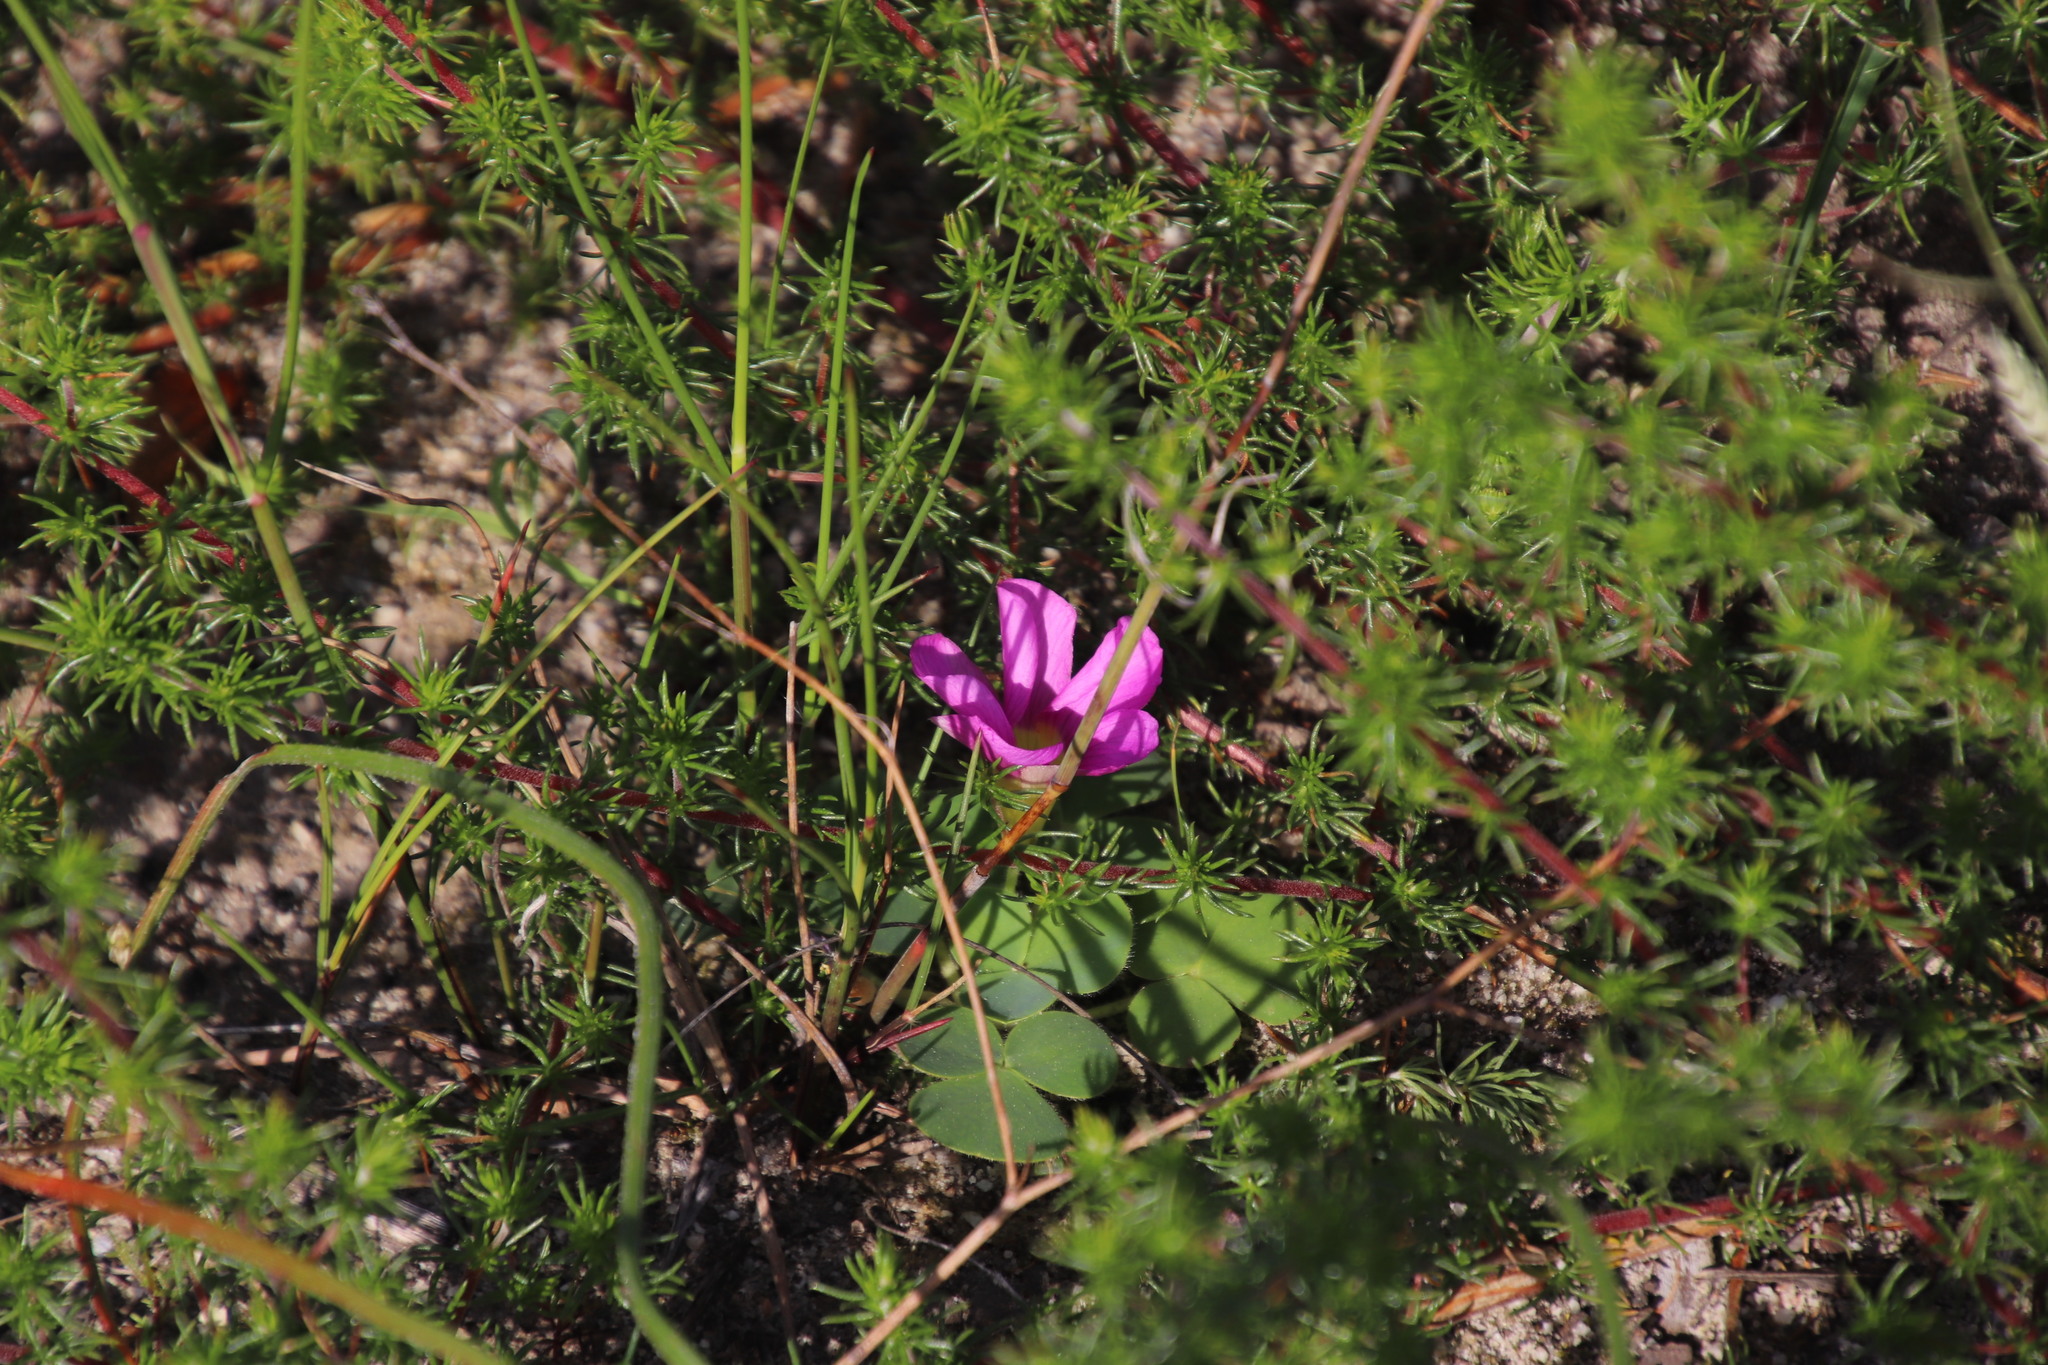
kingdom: Plantae
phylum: Tracheophyta
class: Magnoliopsida
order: Oxalidales
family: Oxalidaceae
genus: Oxalis
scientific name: Oxalis purpurea
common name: Purple woodsorrel
